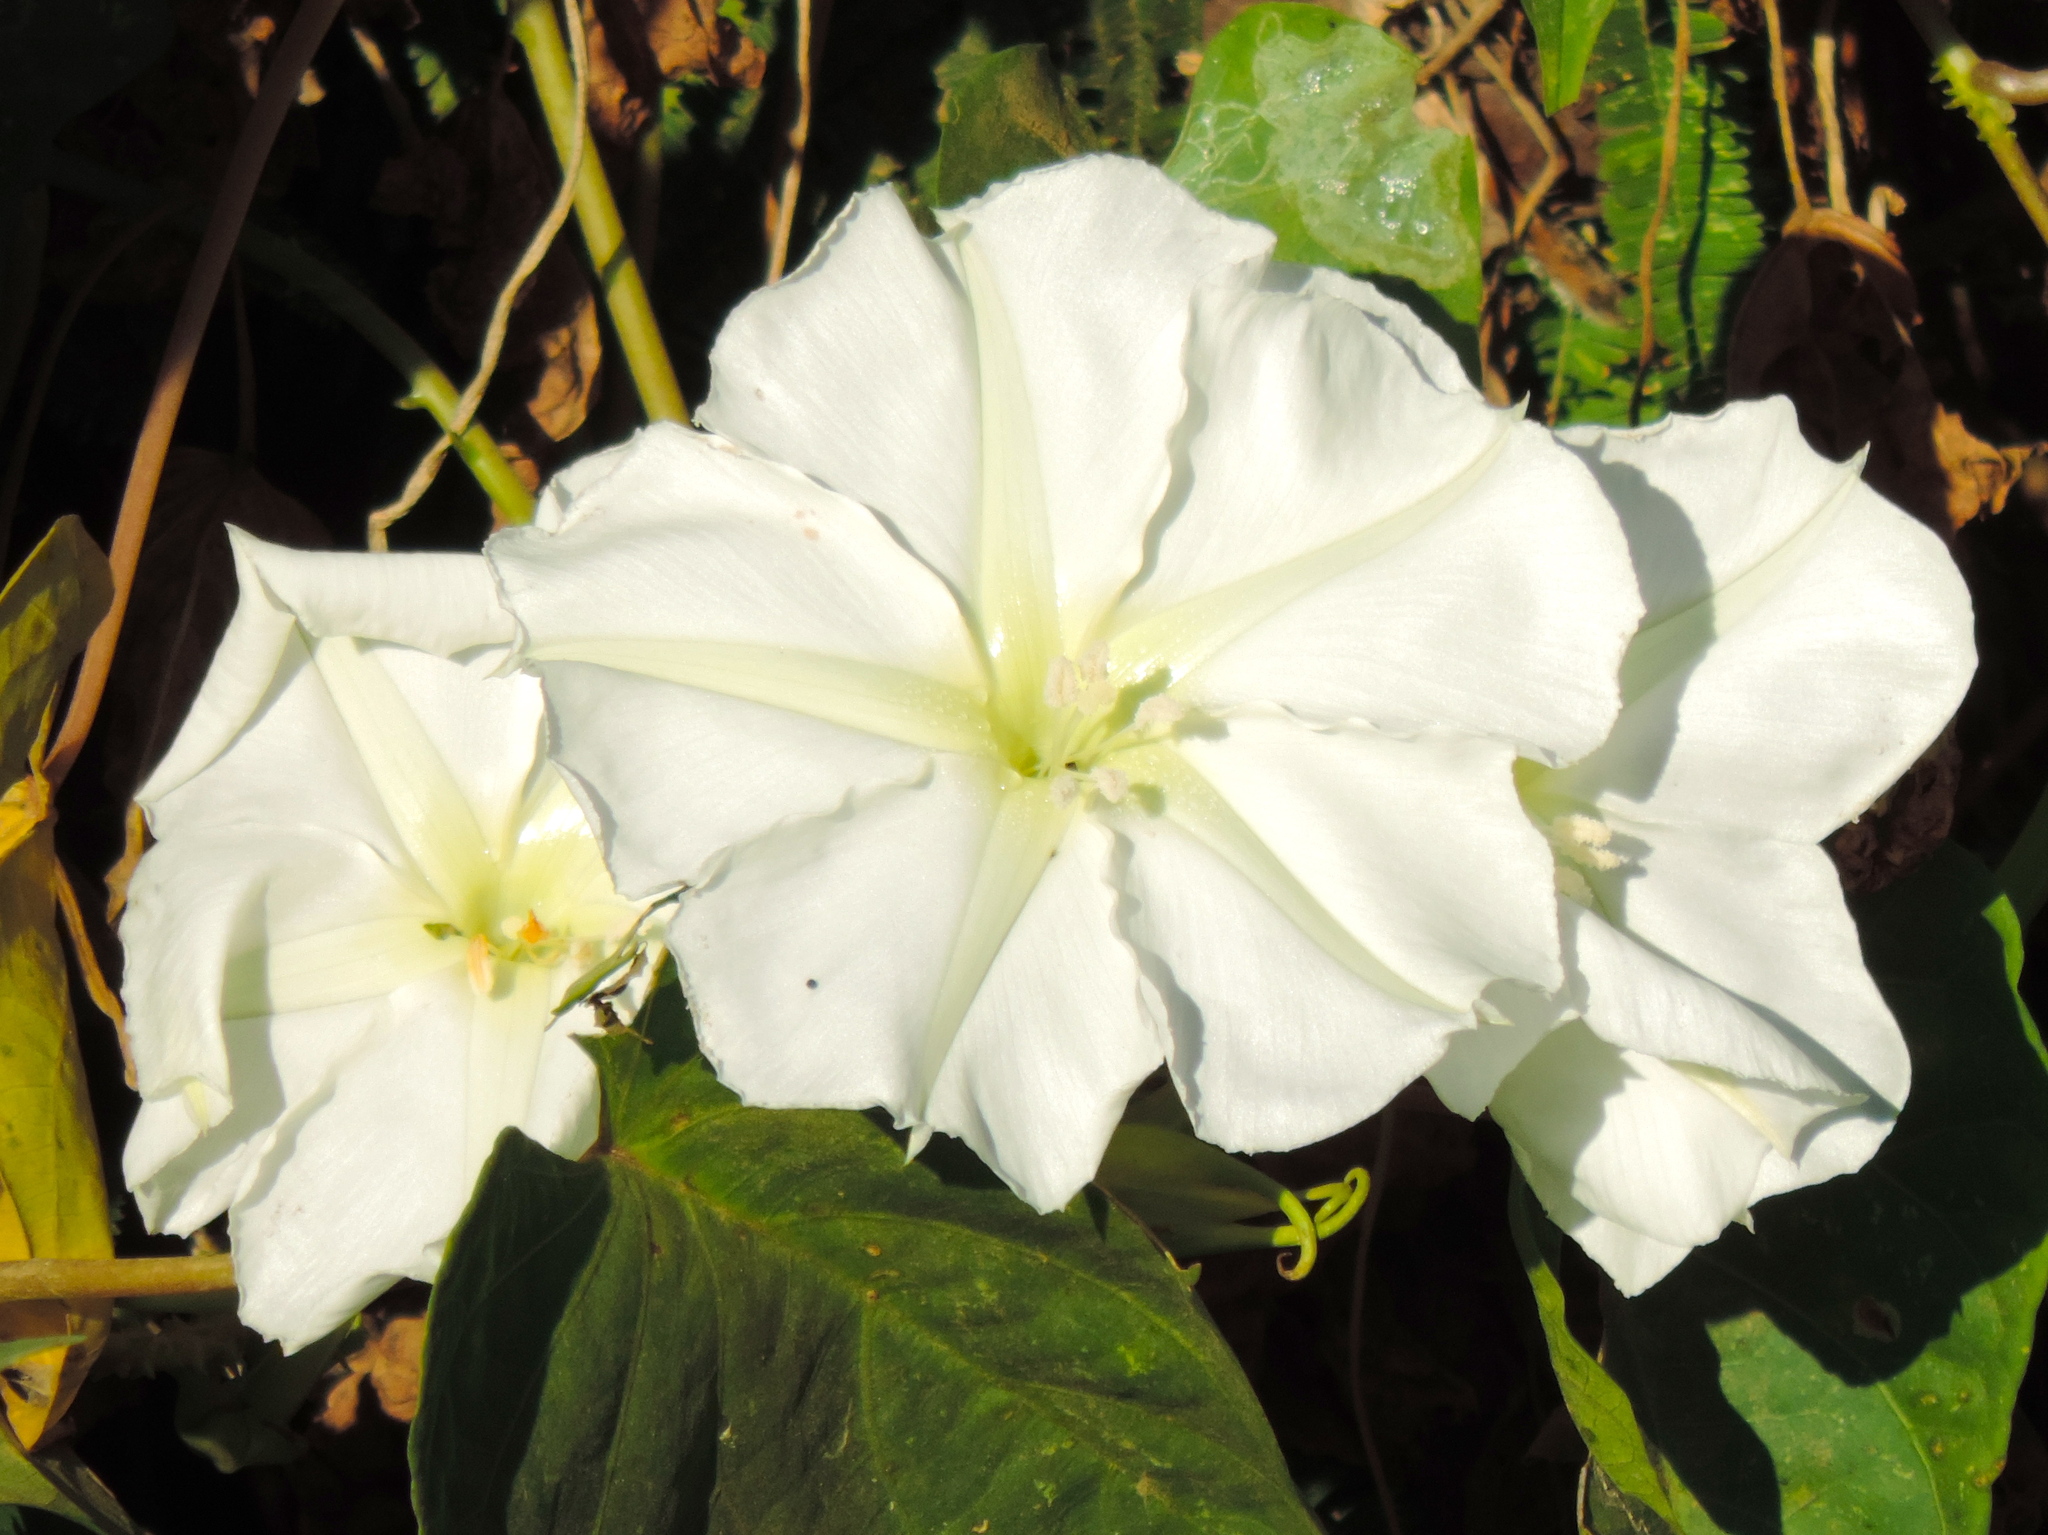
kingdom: Plantae
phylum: Tracheophyta
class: Magnoliopsida
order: Solanales
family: Convolvulaceae
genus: Ipomoea
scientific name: Ipomoea alba
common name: Moonflower
